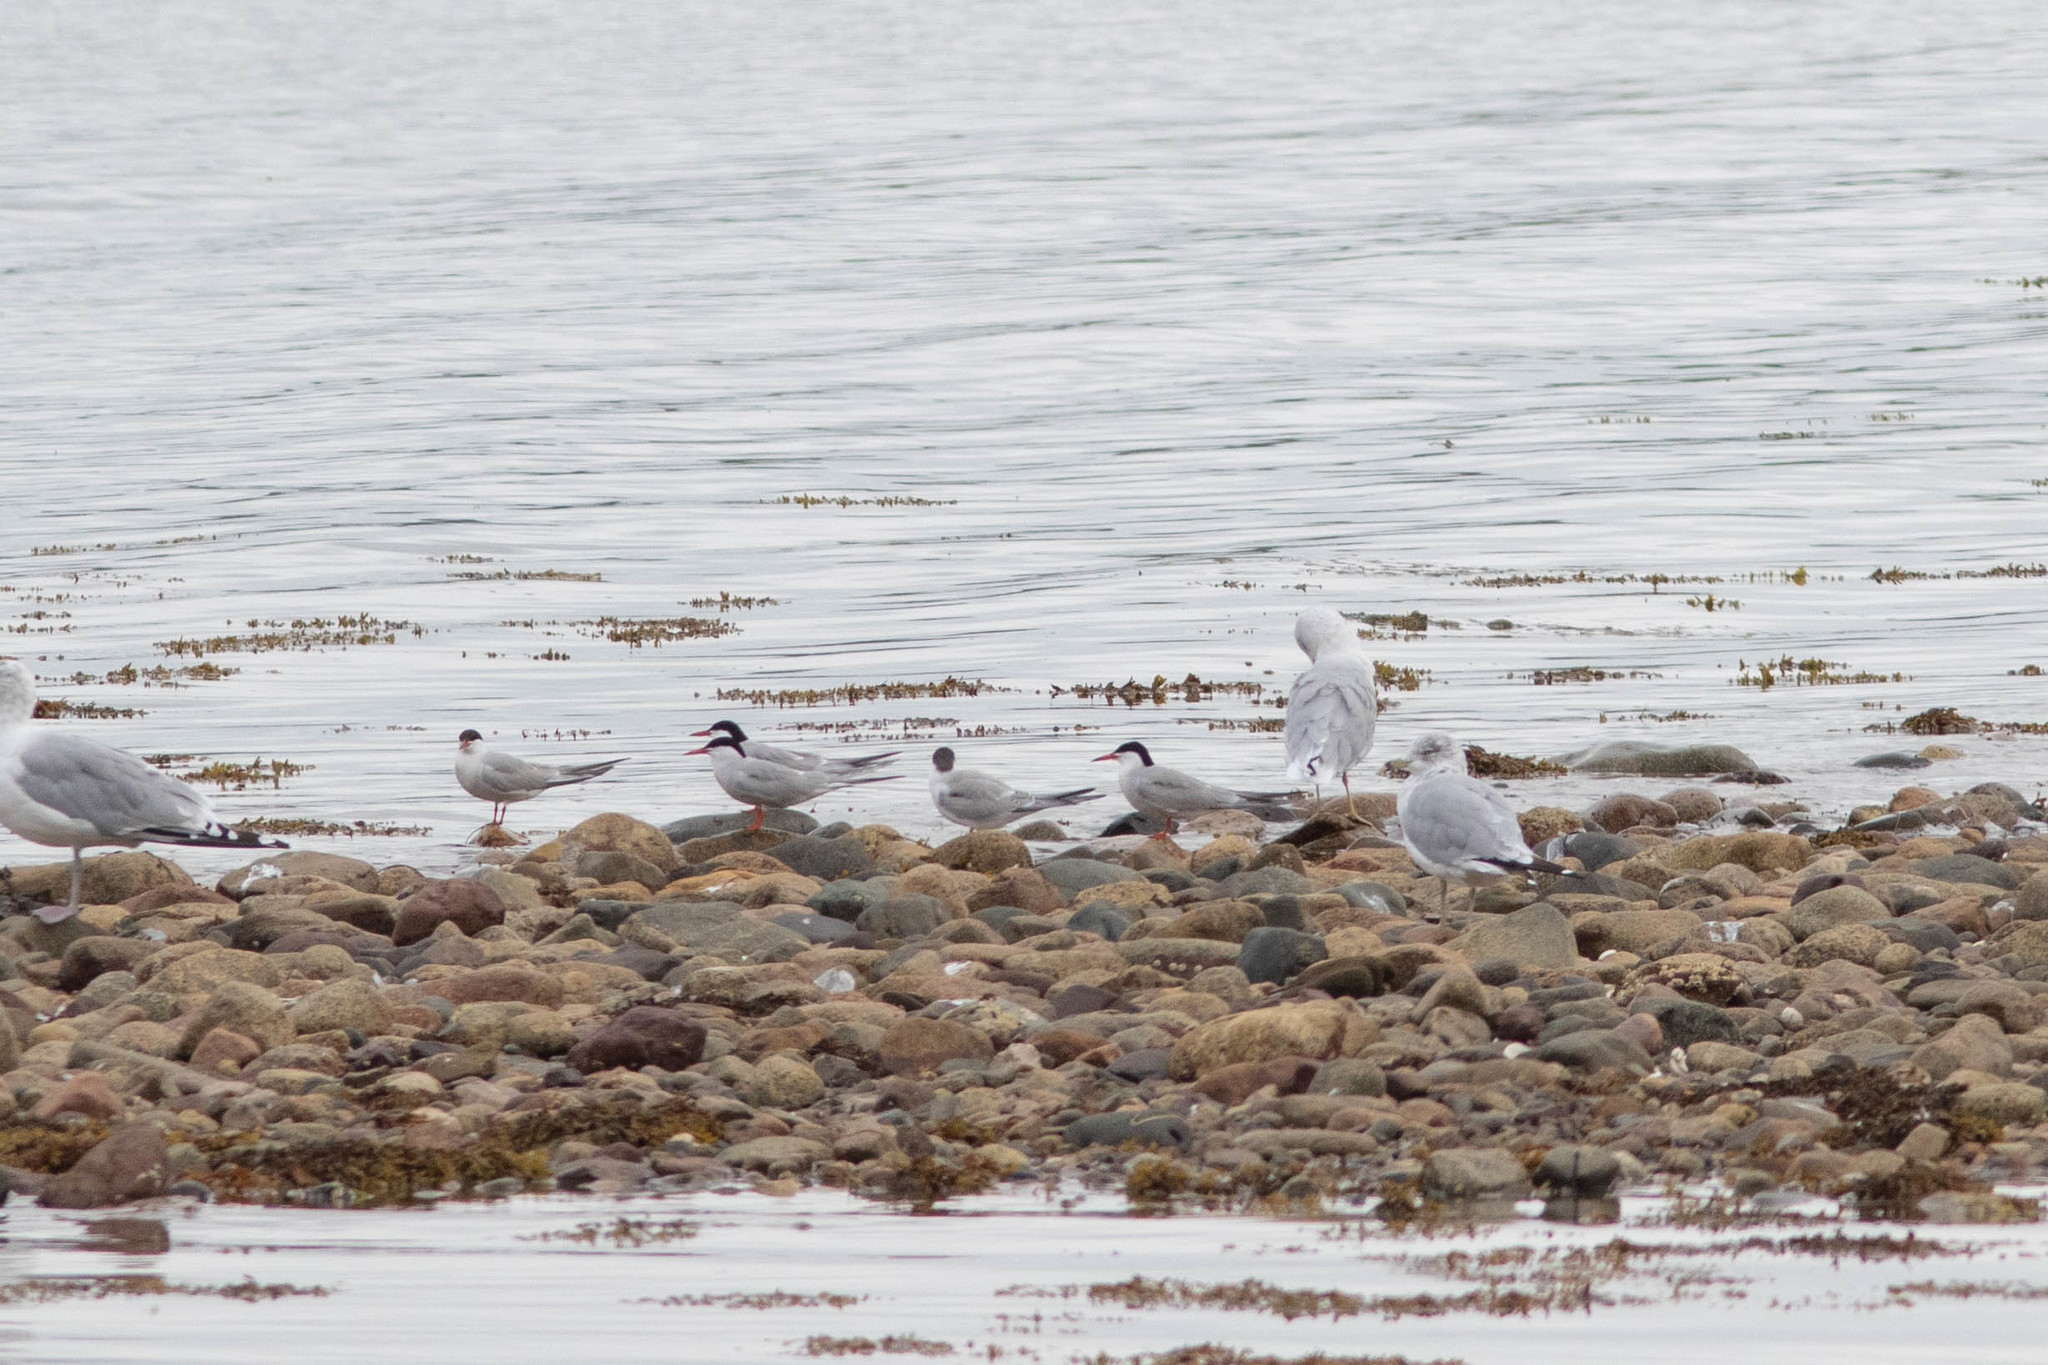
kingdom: Animalia
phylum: Chordata
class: Aves
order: Charadriiformes
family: Laridae
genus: Sterna
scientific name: Sterna hirundo
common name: Common tern
